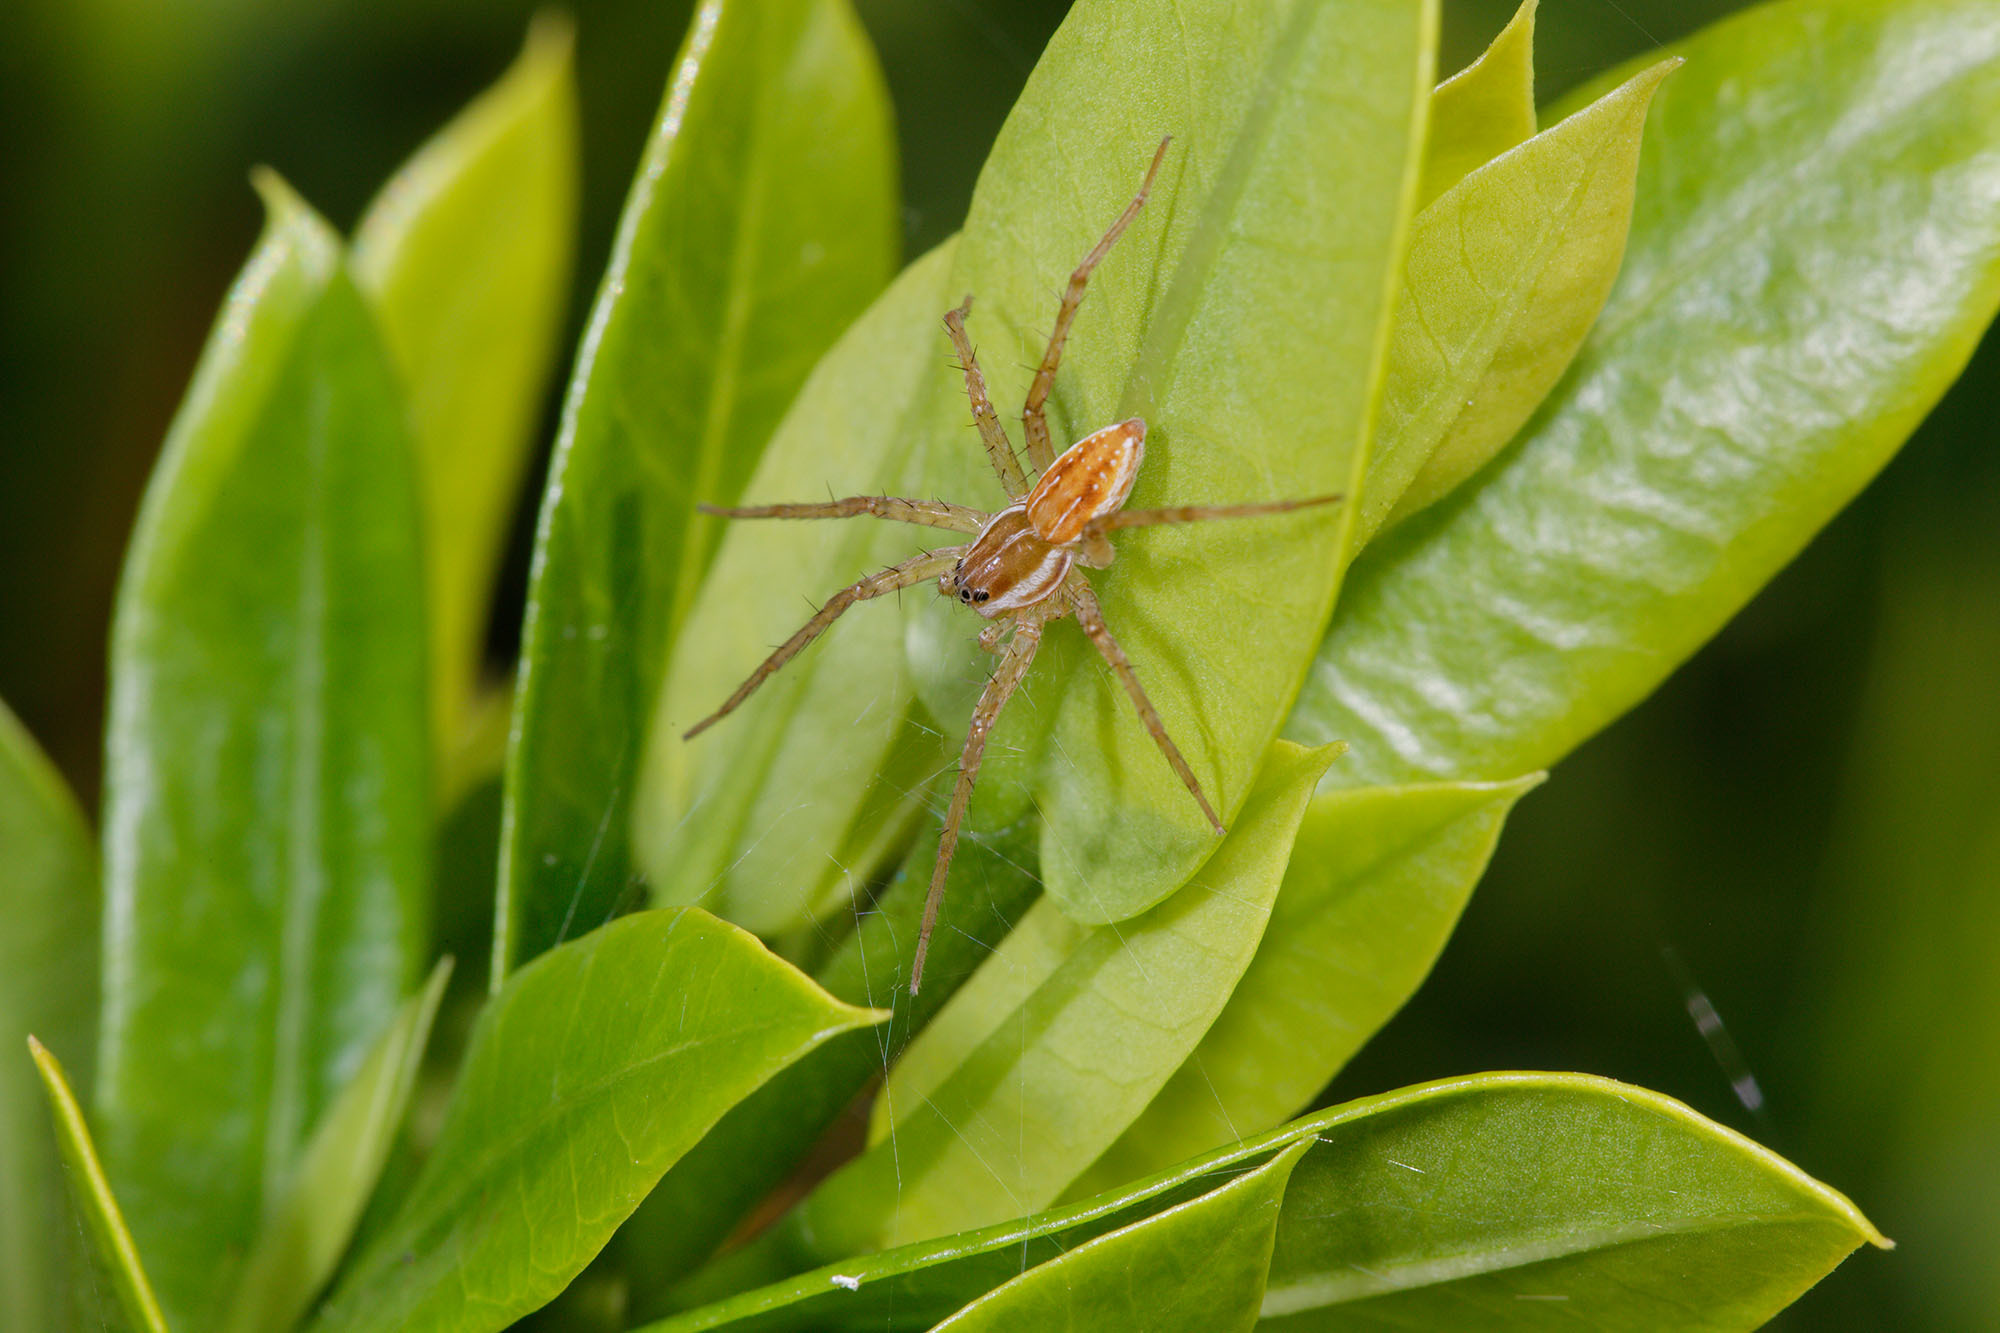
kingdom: Animalia
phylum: Arthropoda
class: Arachnida
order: Araneae
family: Pisauridae
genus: Dolomedes
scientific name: Dolomedes facetus
